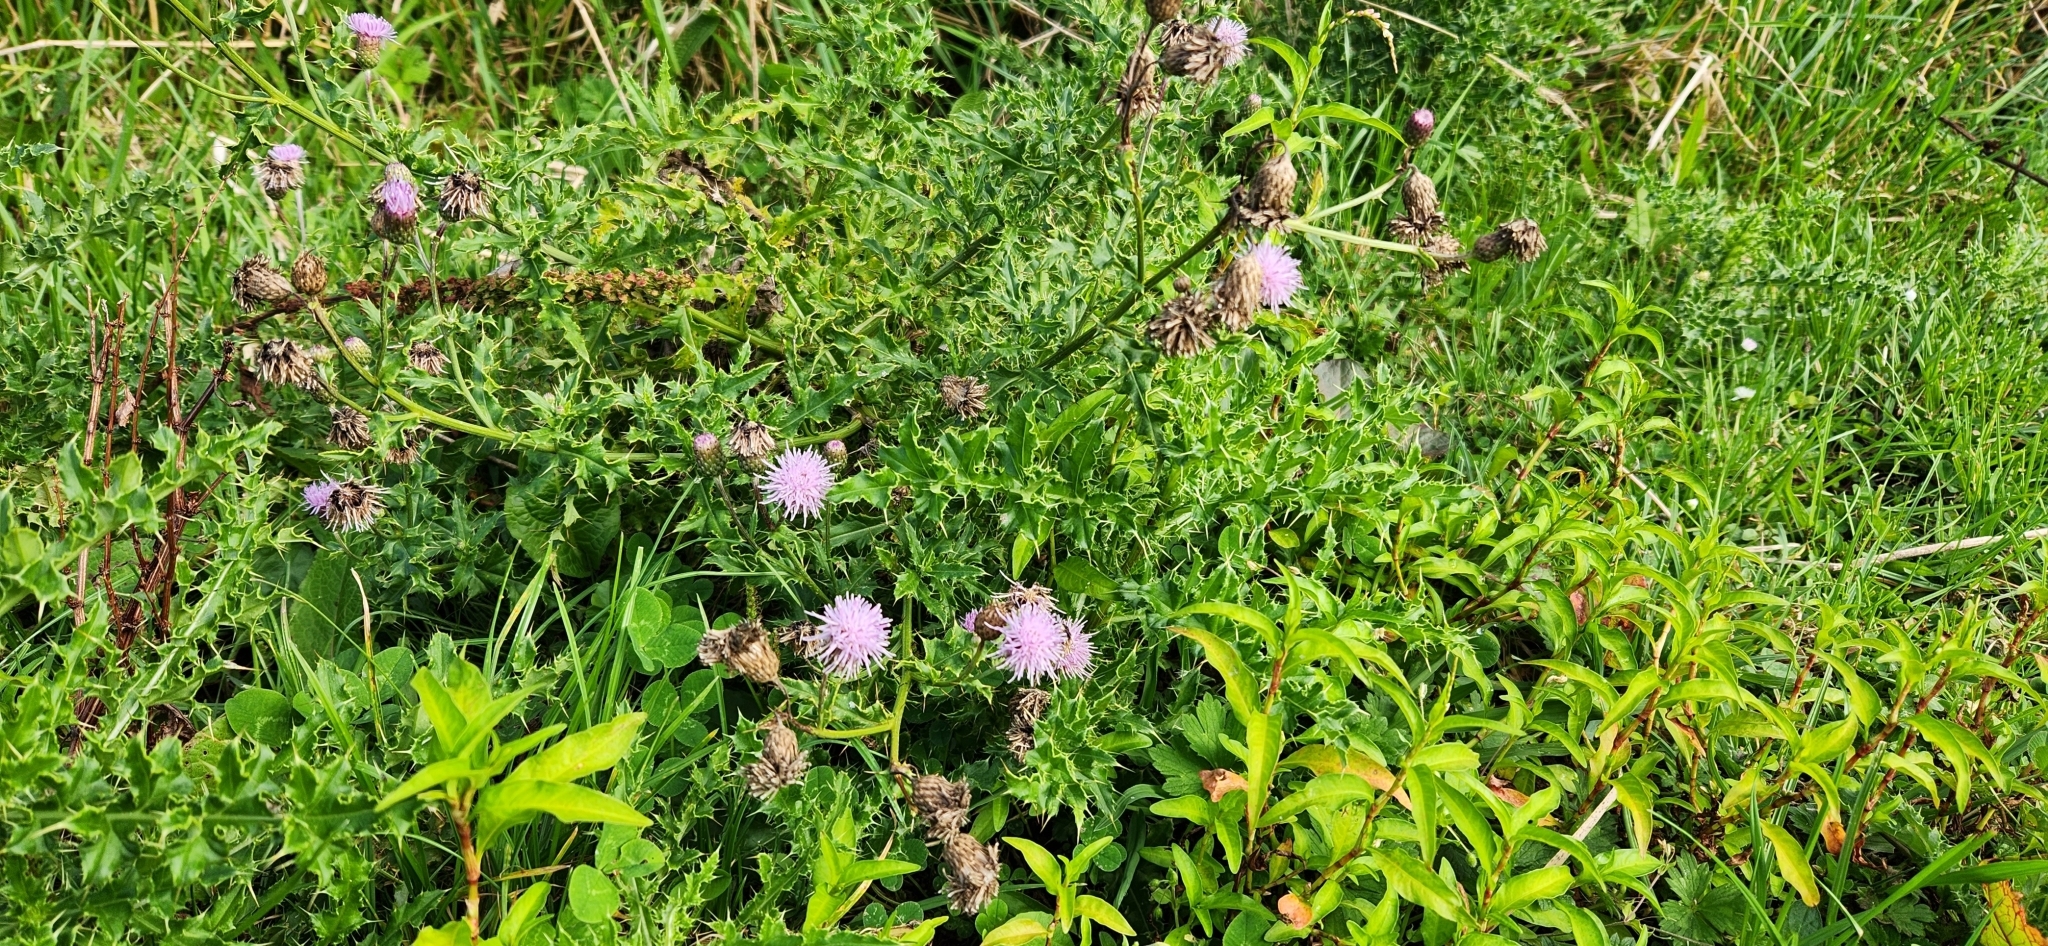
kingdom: Plantae
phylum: Tracheophyta
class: Magnoliopsida
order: Asterales
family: Asteraceae
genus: Cirsium
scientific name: Cirsium arvense
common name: Creeping thistle
